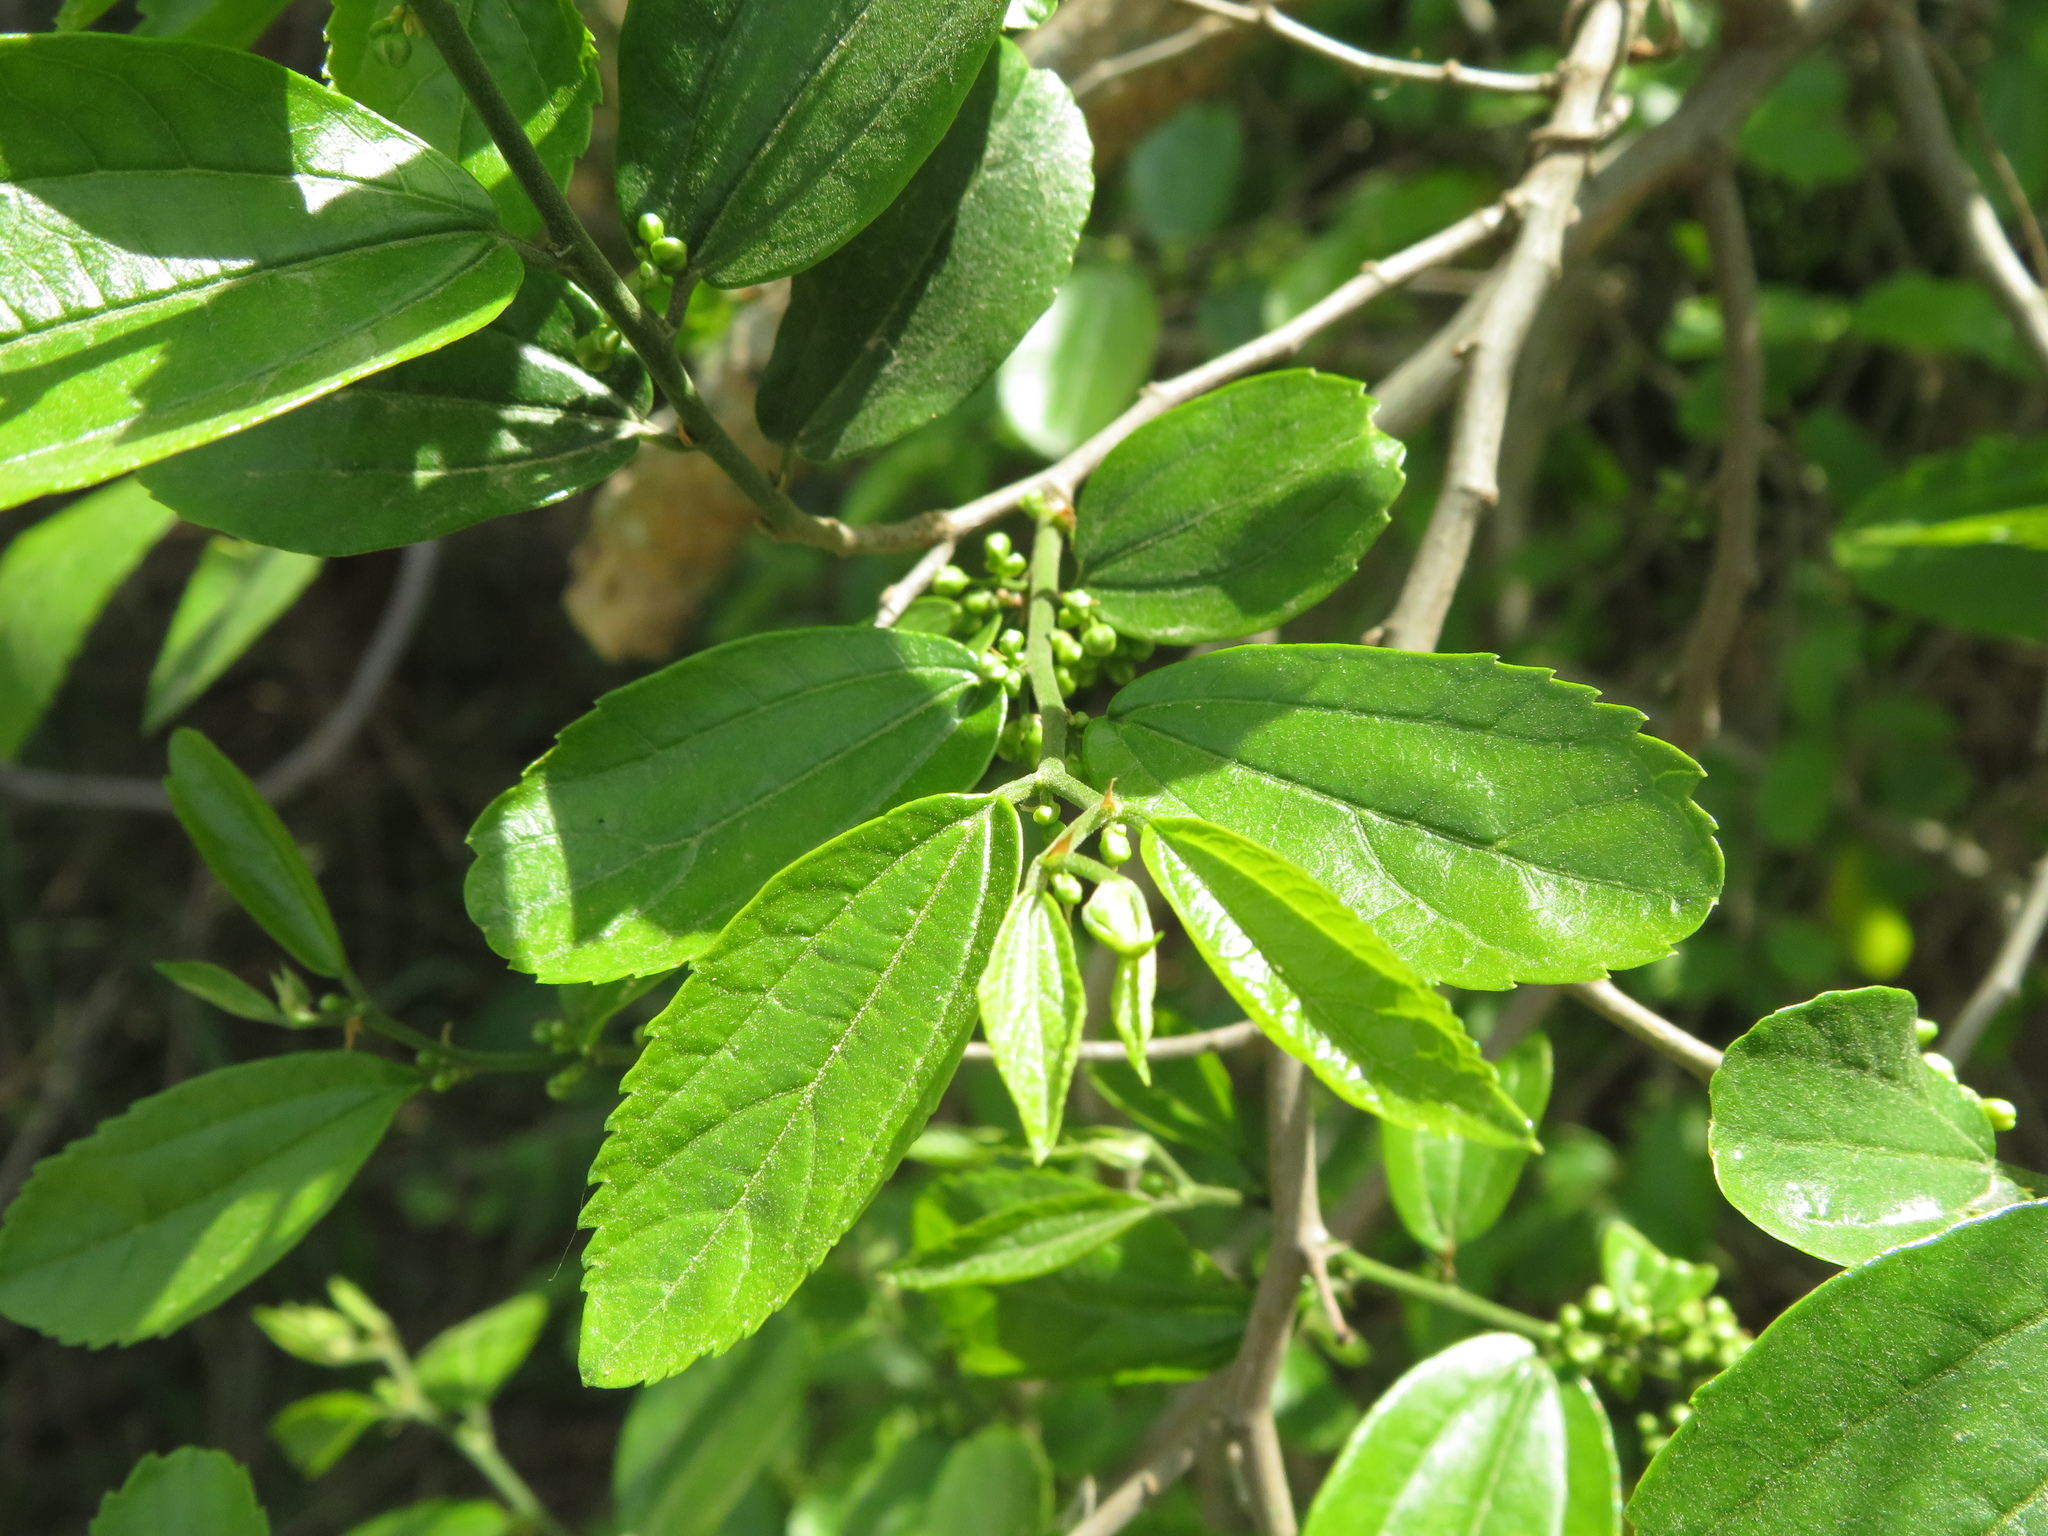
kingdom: Plantae
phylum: Tracheophyta
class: Magnoliopsida
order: Rosales
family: Cannabaceae
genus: Celtis
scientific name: Celtis iguanaea
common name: Iguana hackberry
